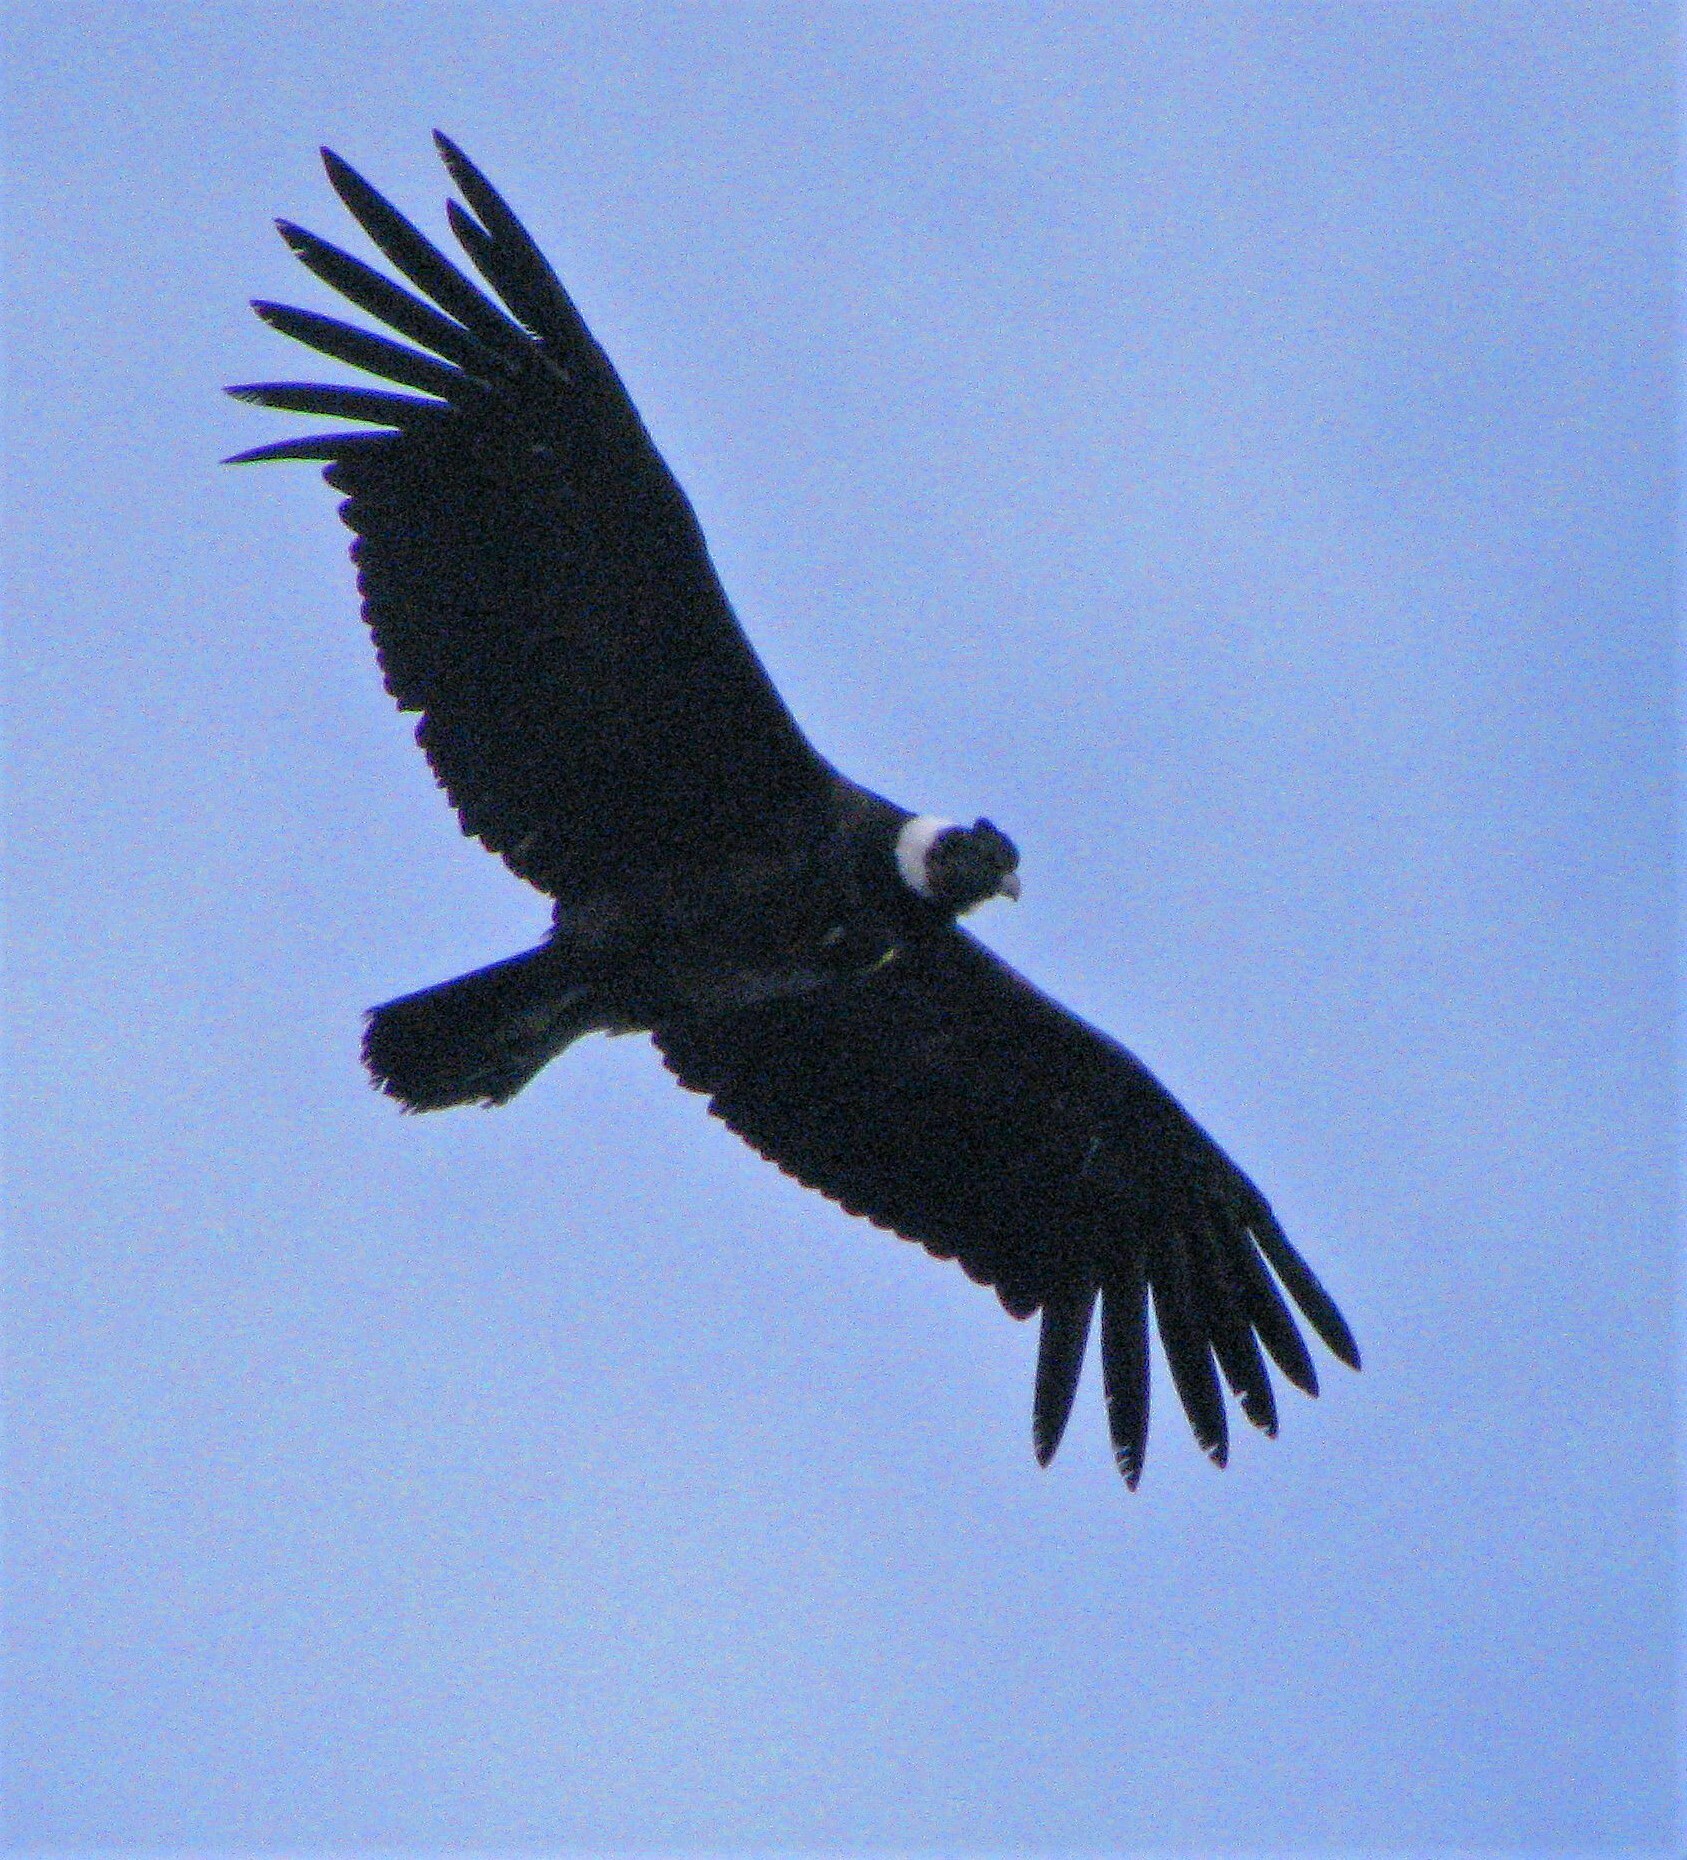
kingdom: Animalia
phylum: Chordata
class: Aves
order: Accipitriformes
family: Cathartidae
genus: Vultur
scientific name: Vultur gryphus
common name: Andean condor
